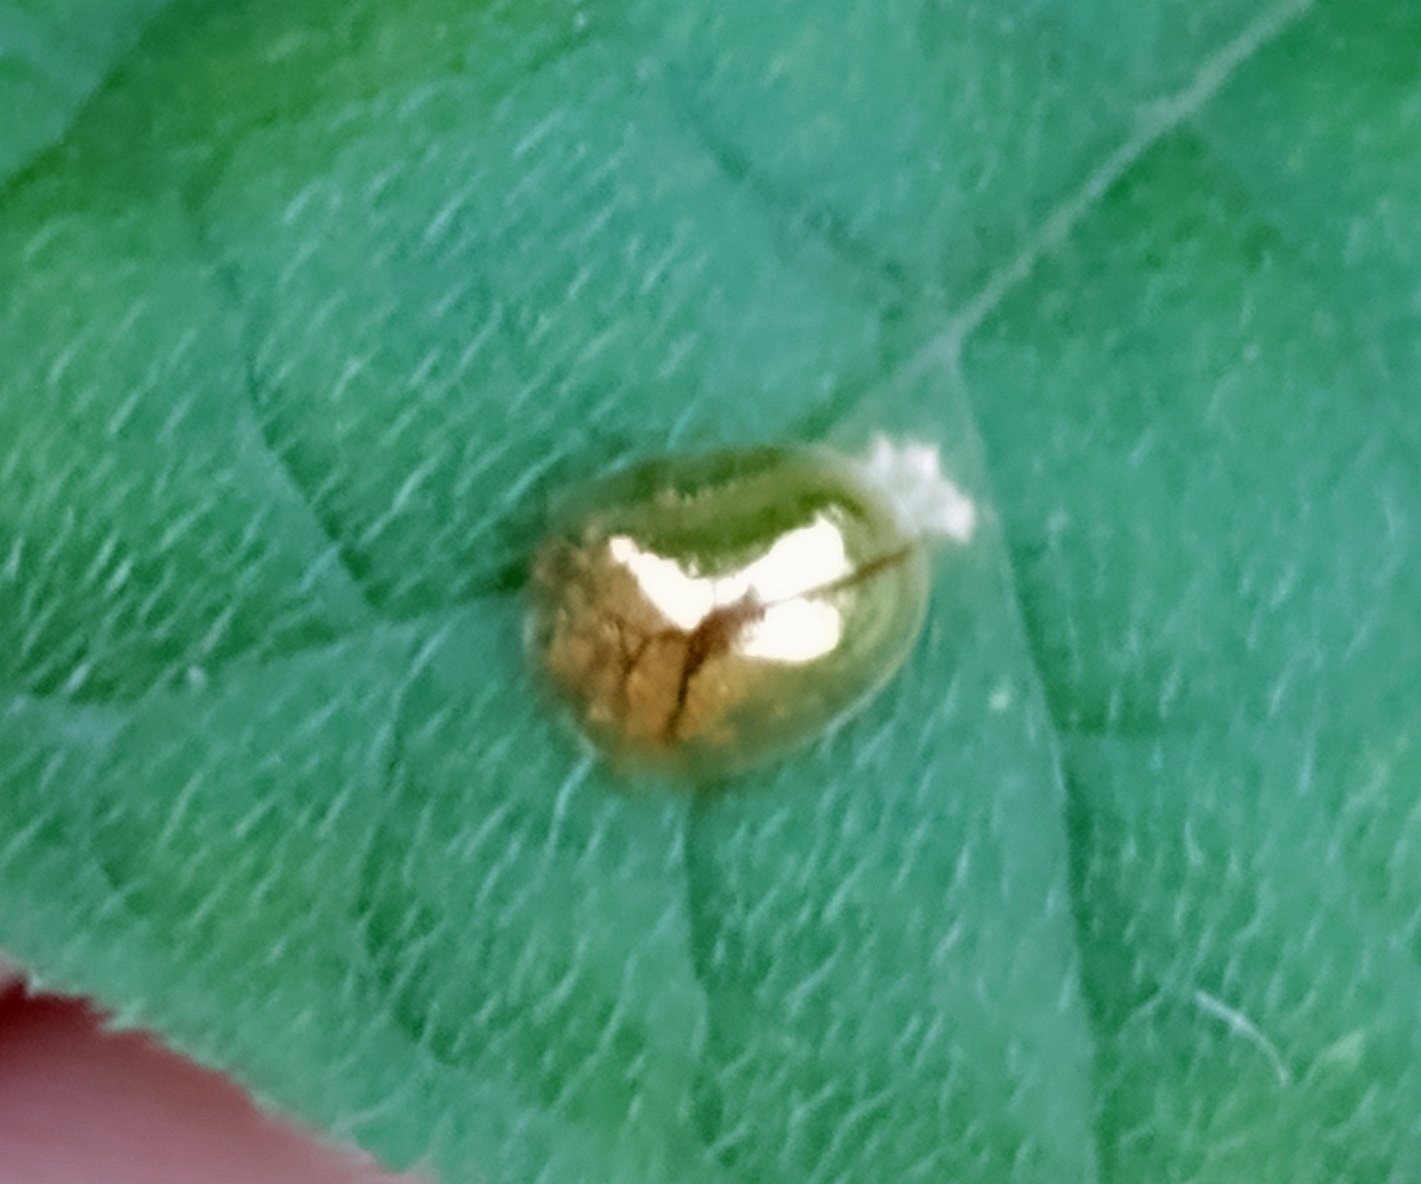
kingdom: Animalia
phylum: Arthropoda
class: Insecta
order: Coleoptera
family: Chrysomelidae
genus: Charidotella
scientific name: Charidotella sexpunctata
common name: Golden tortoise beetle
